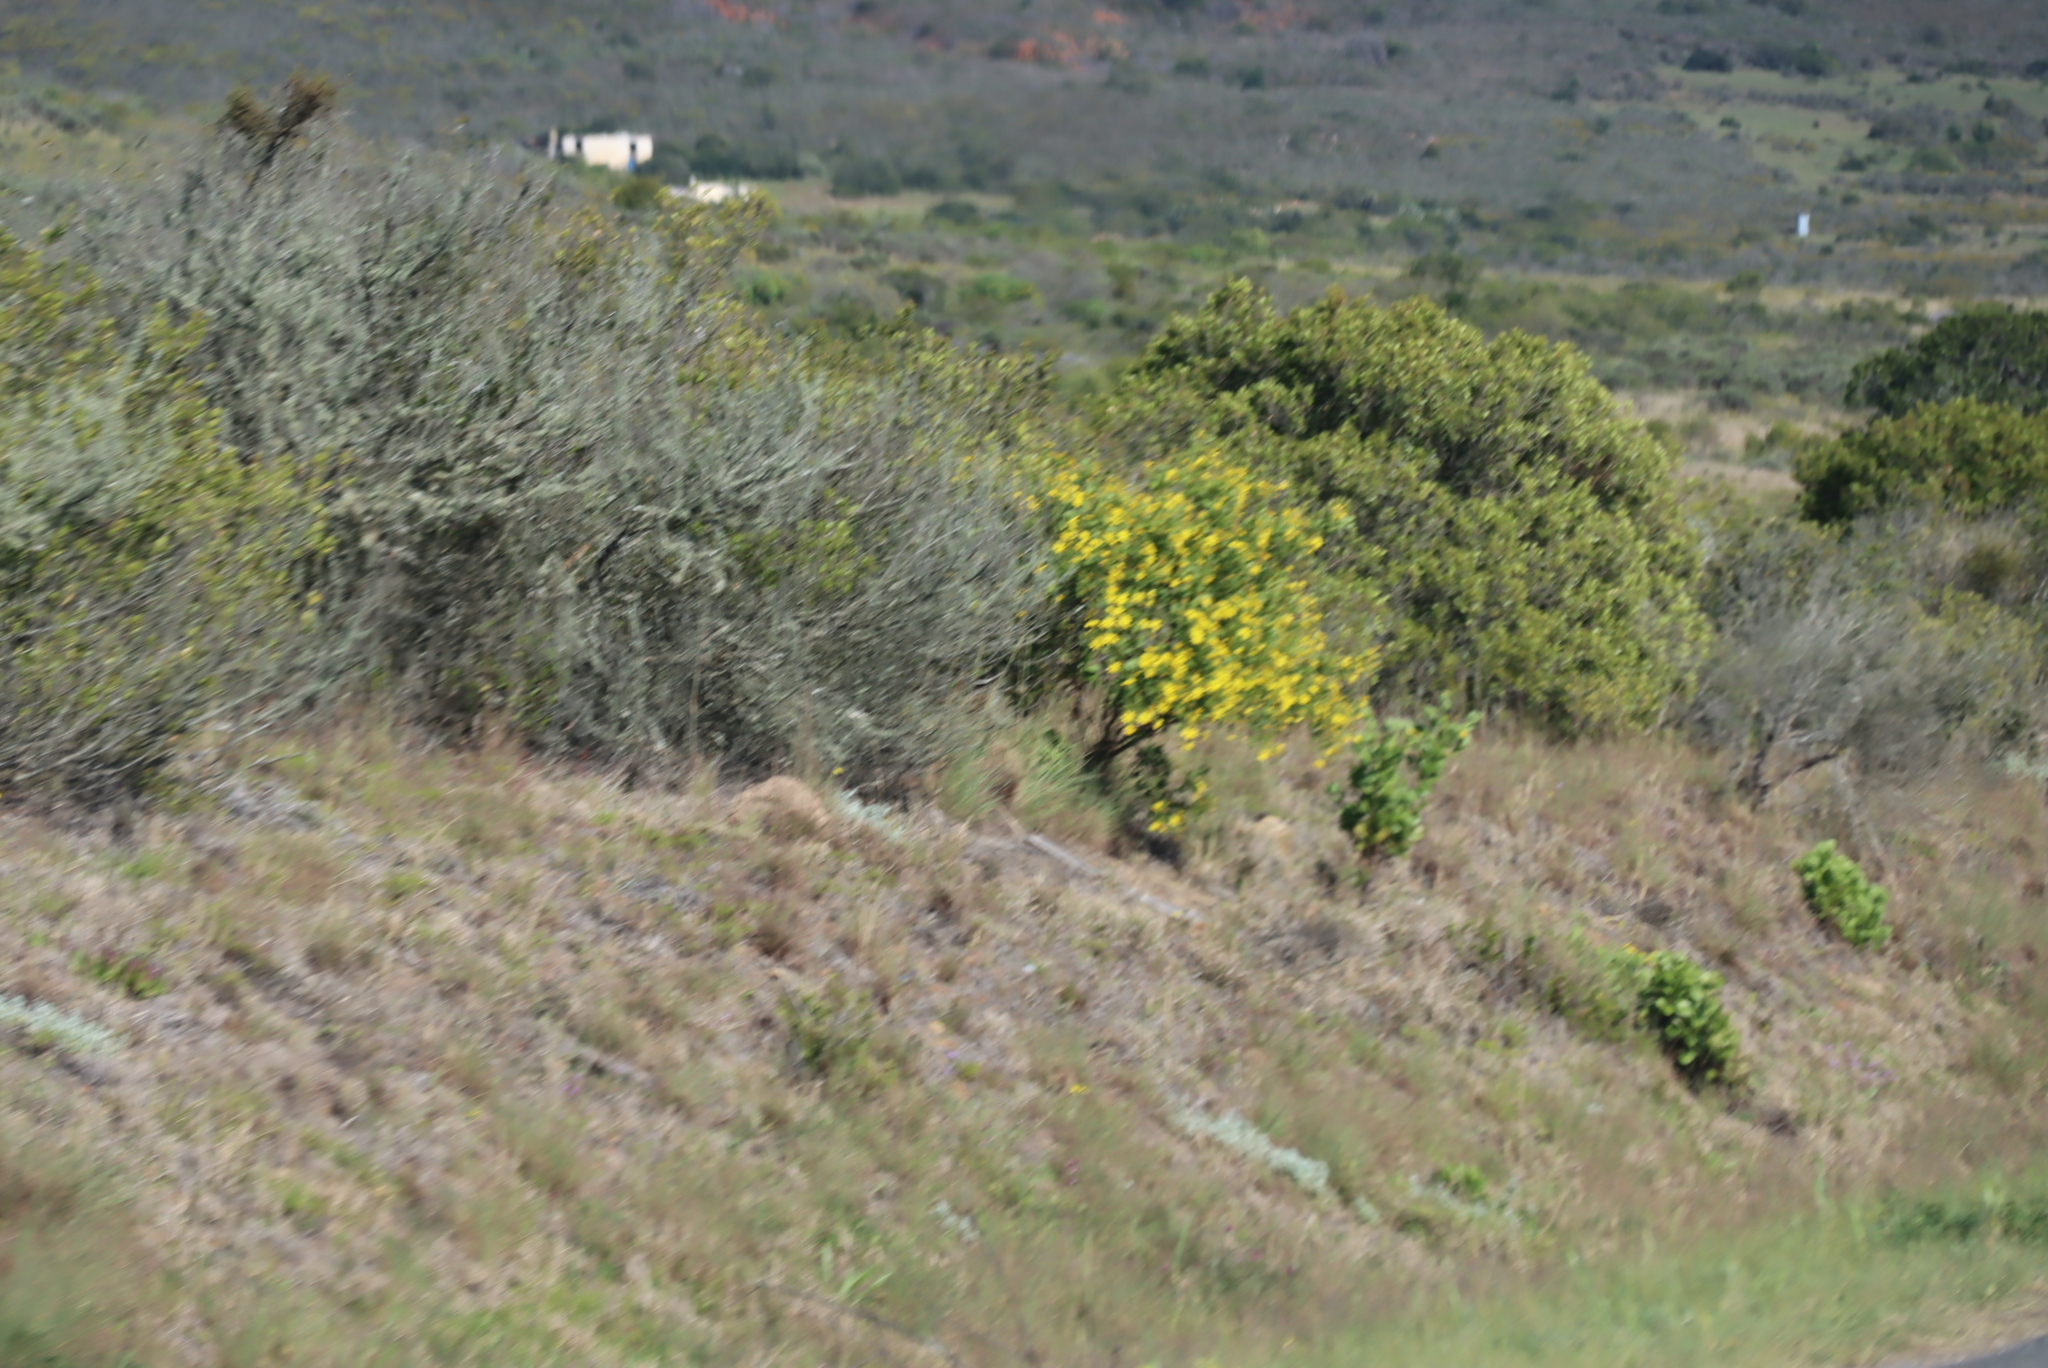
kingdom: Plantae
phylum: Tracheophyta
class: Magnoliopsida
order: Asterales
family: Asteraceae
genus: Osteospermum
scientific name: Osteospermum moniliferum
